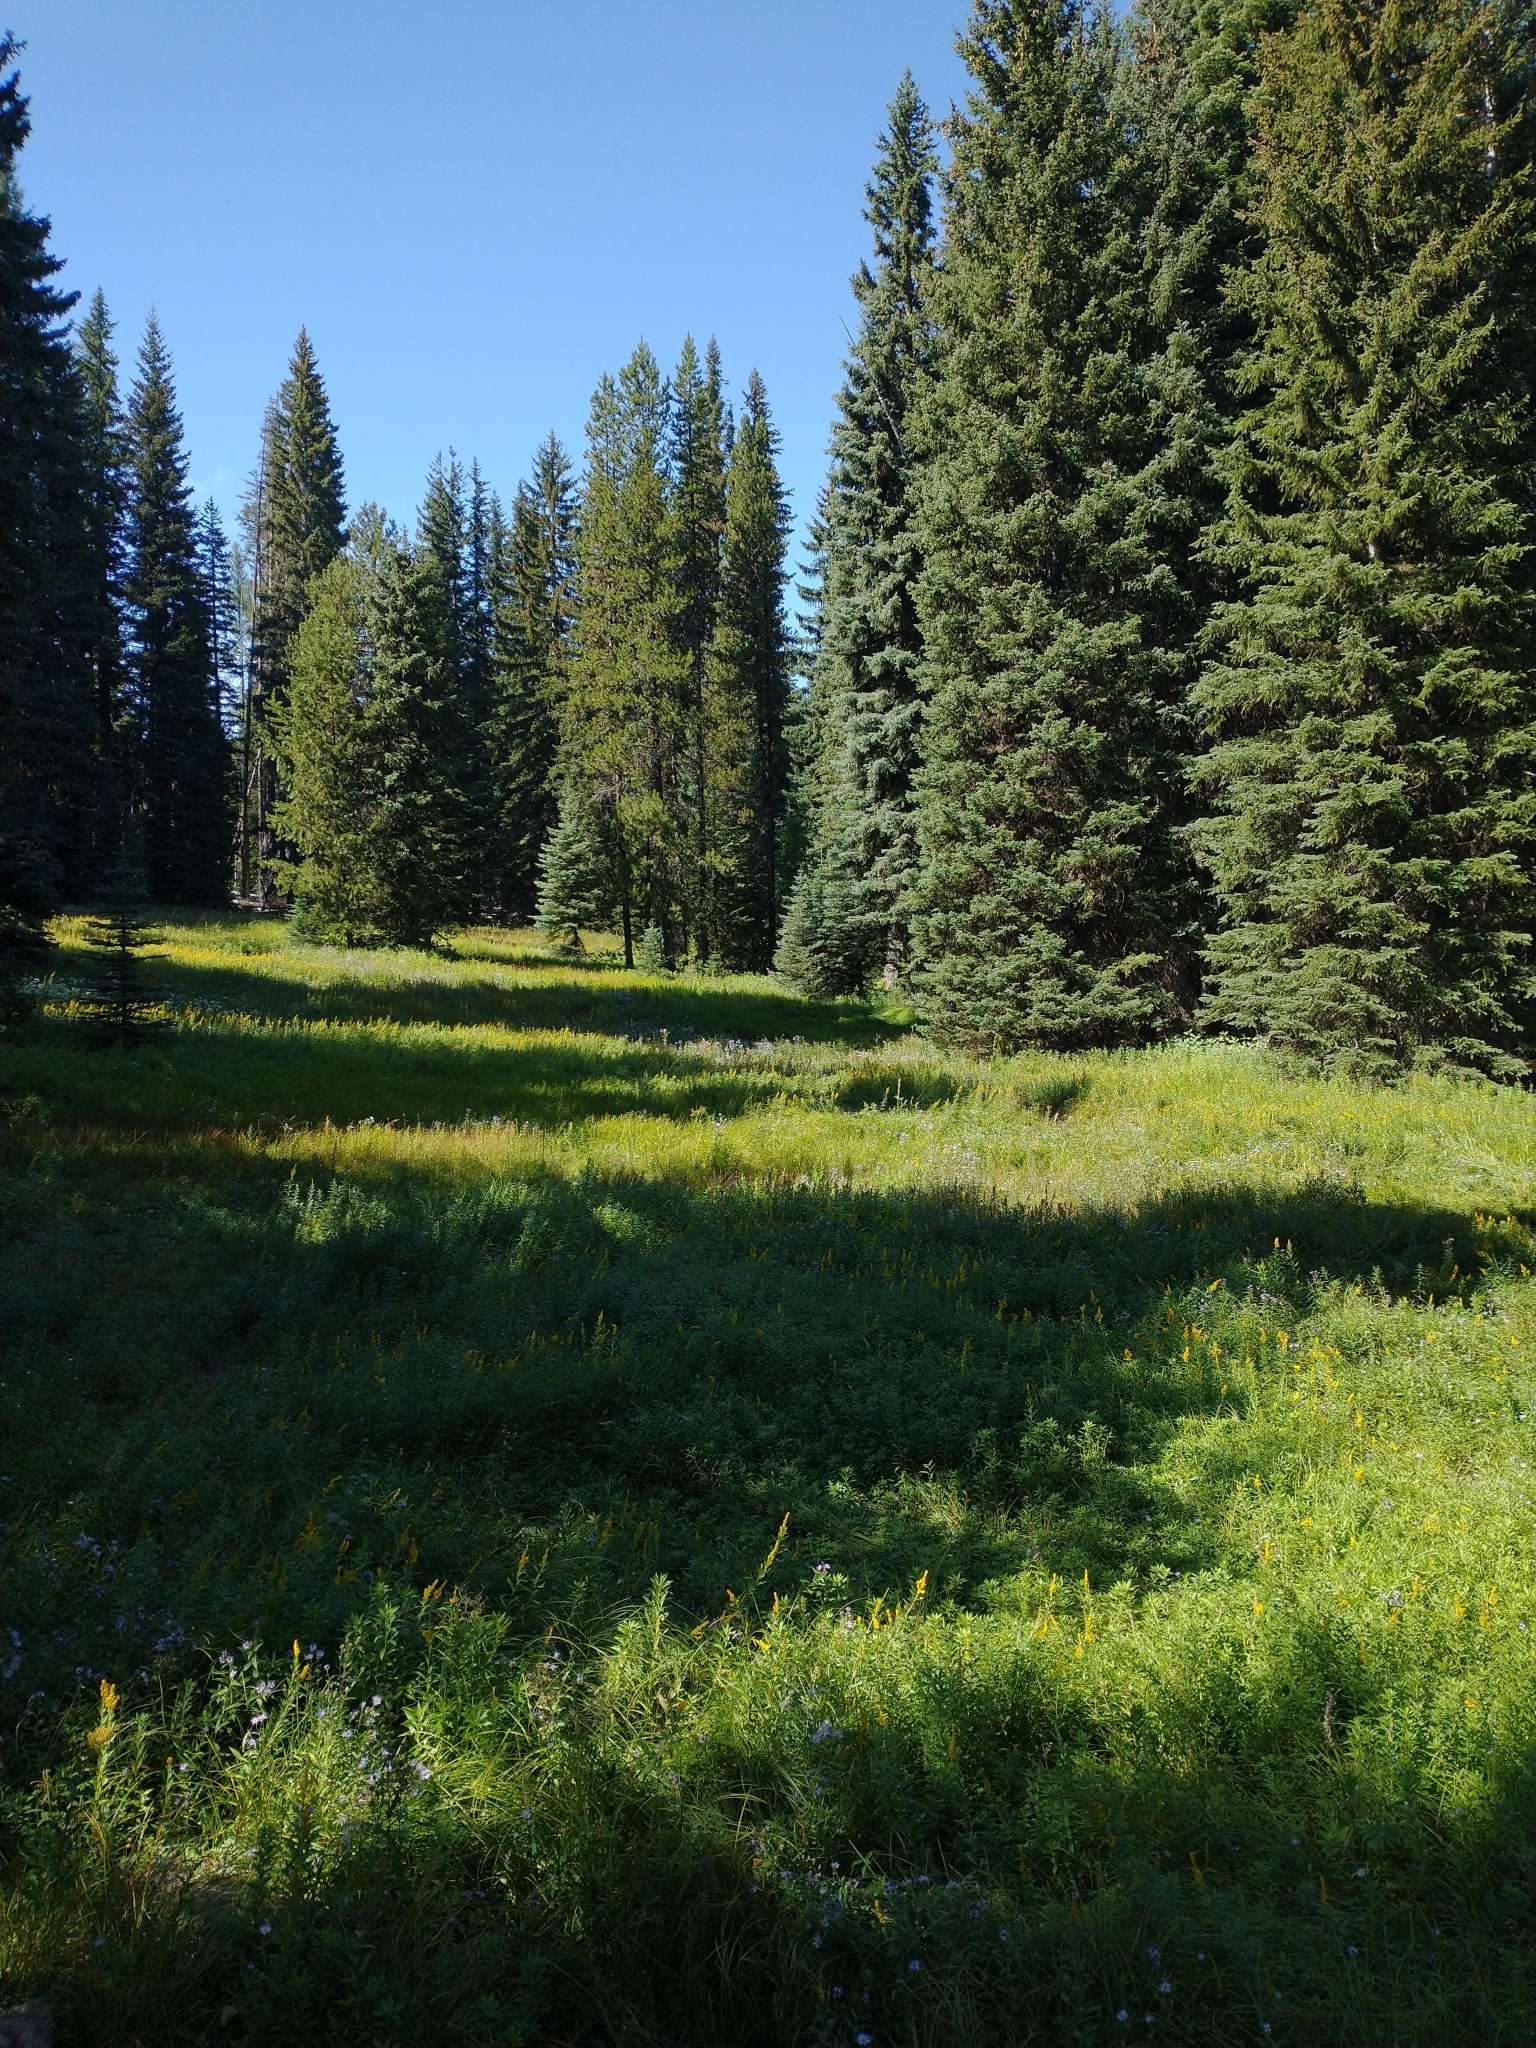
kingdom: Plantae
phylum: Tracheophyta
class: Pinopsida
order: Pinales
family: Pinaceae
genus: Picea
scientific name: Picea engelmannii
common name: Engelmann spruce
